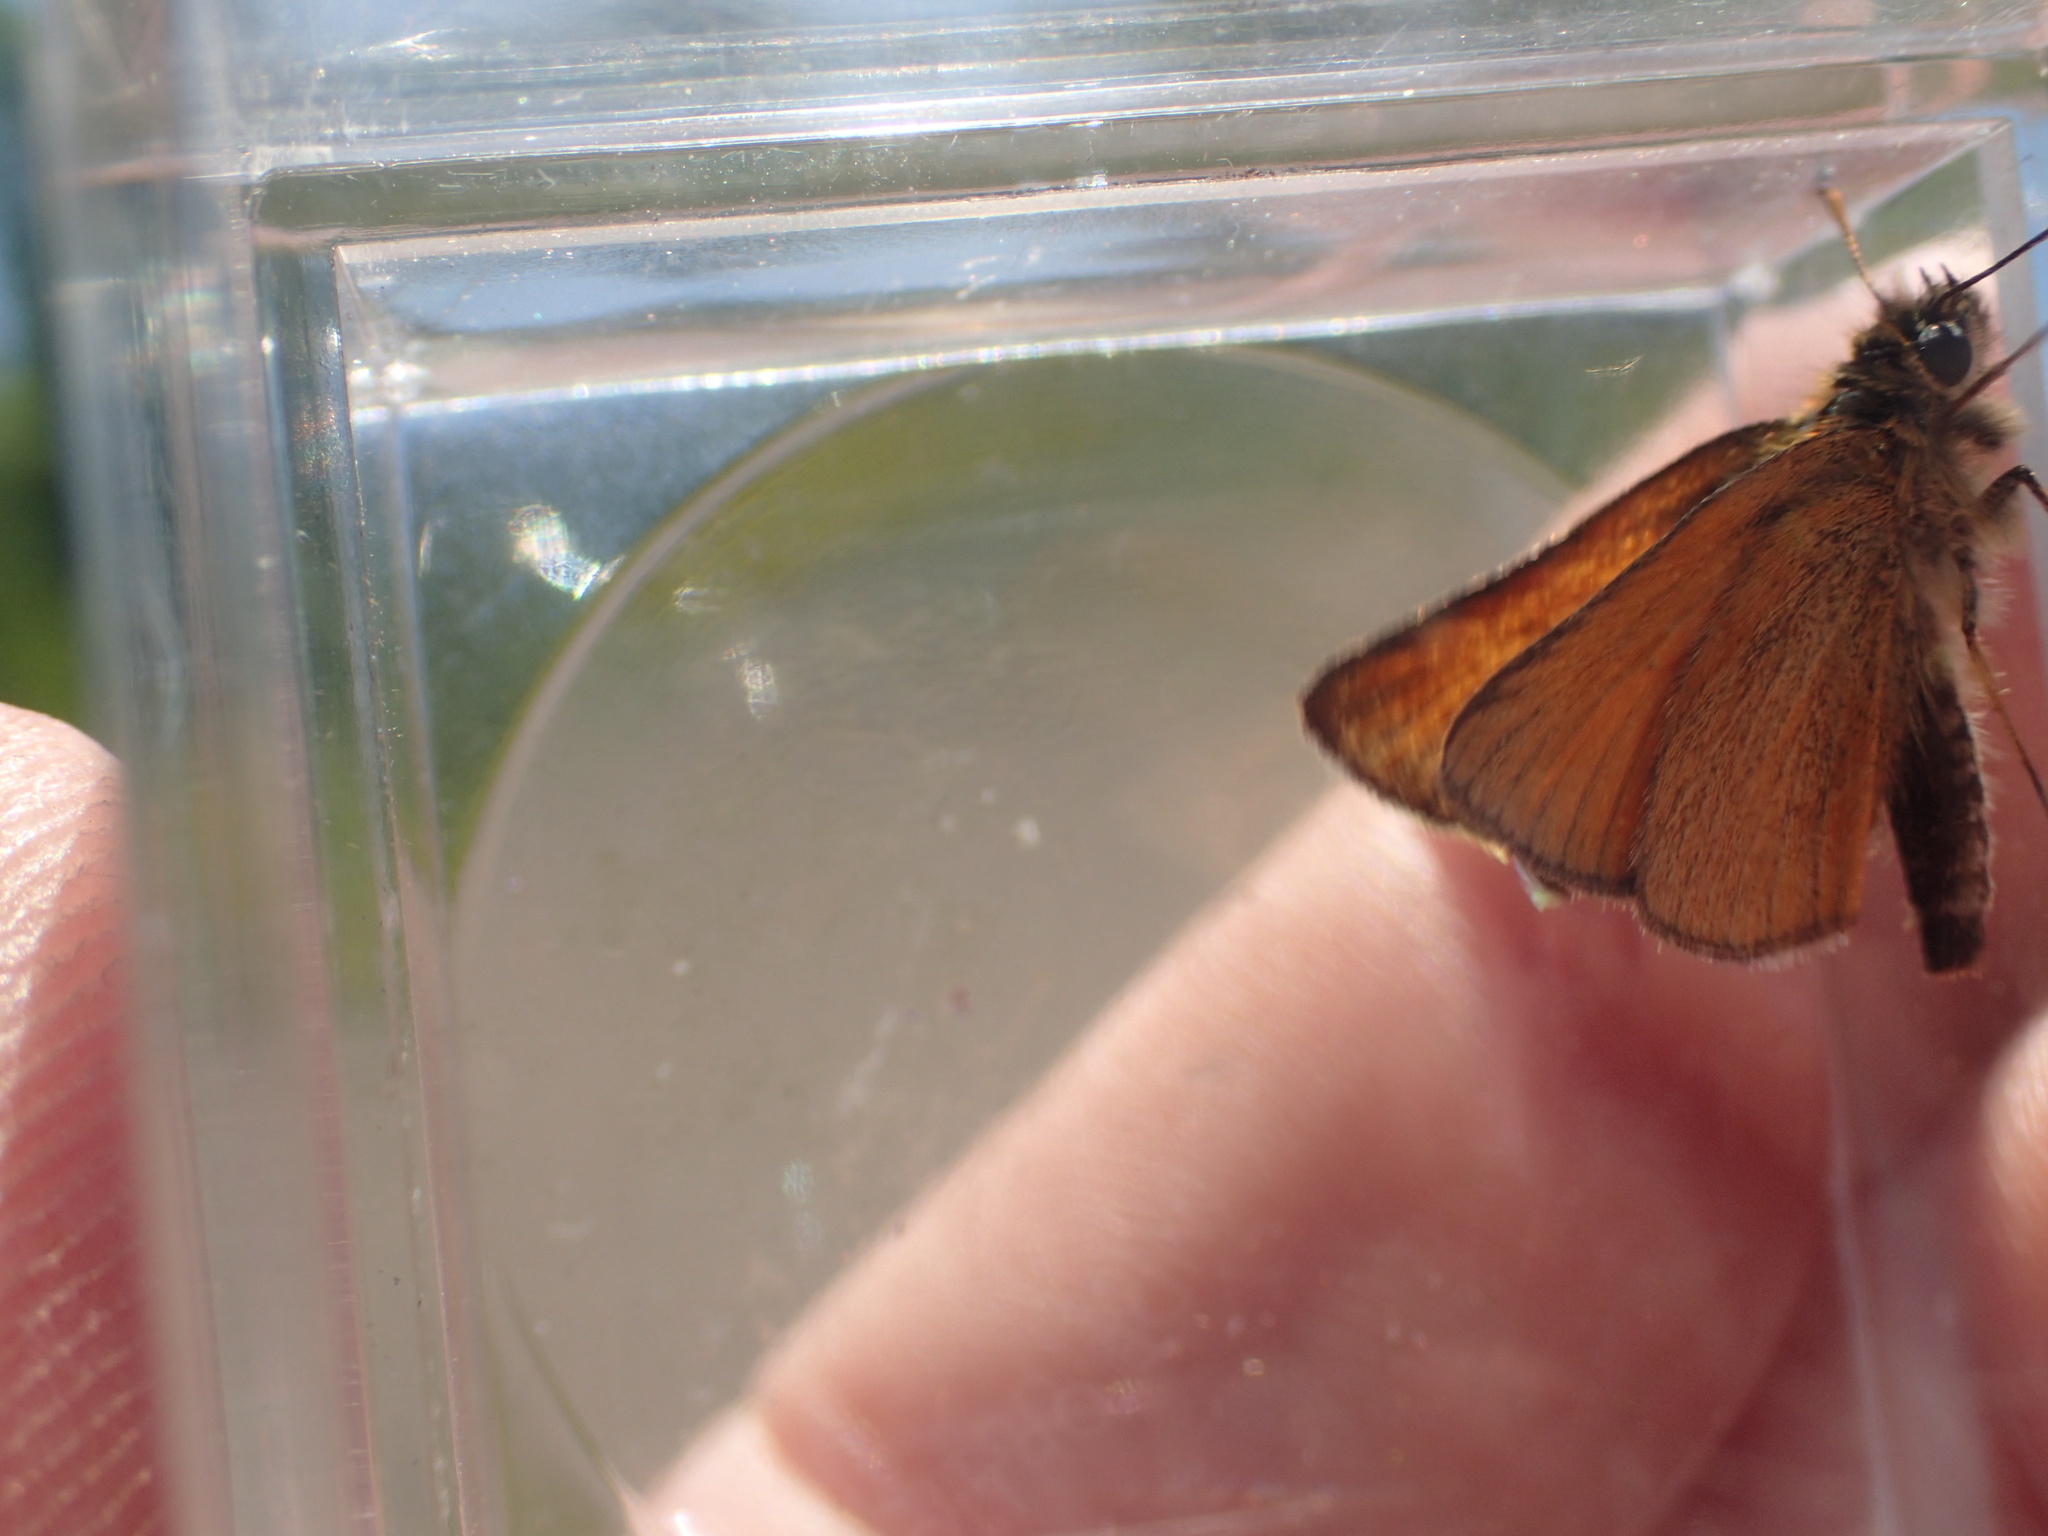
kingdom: Animalia
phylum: Arthropoda
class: Insecta
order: Lepidoptera
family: Hesperiidae
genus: Thymelicus
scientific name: Thymelicus lineola
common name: Essex skipper
